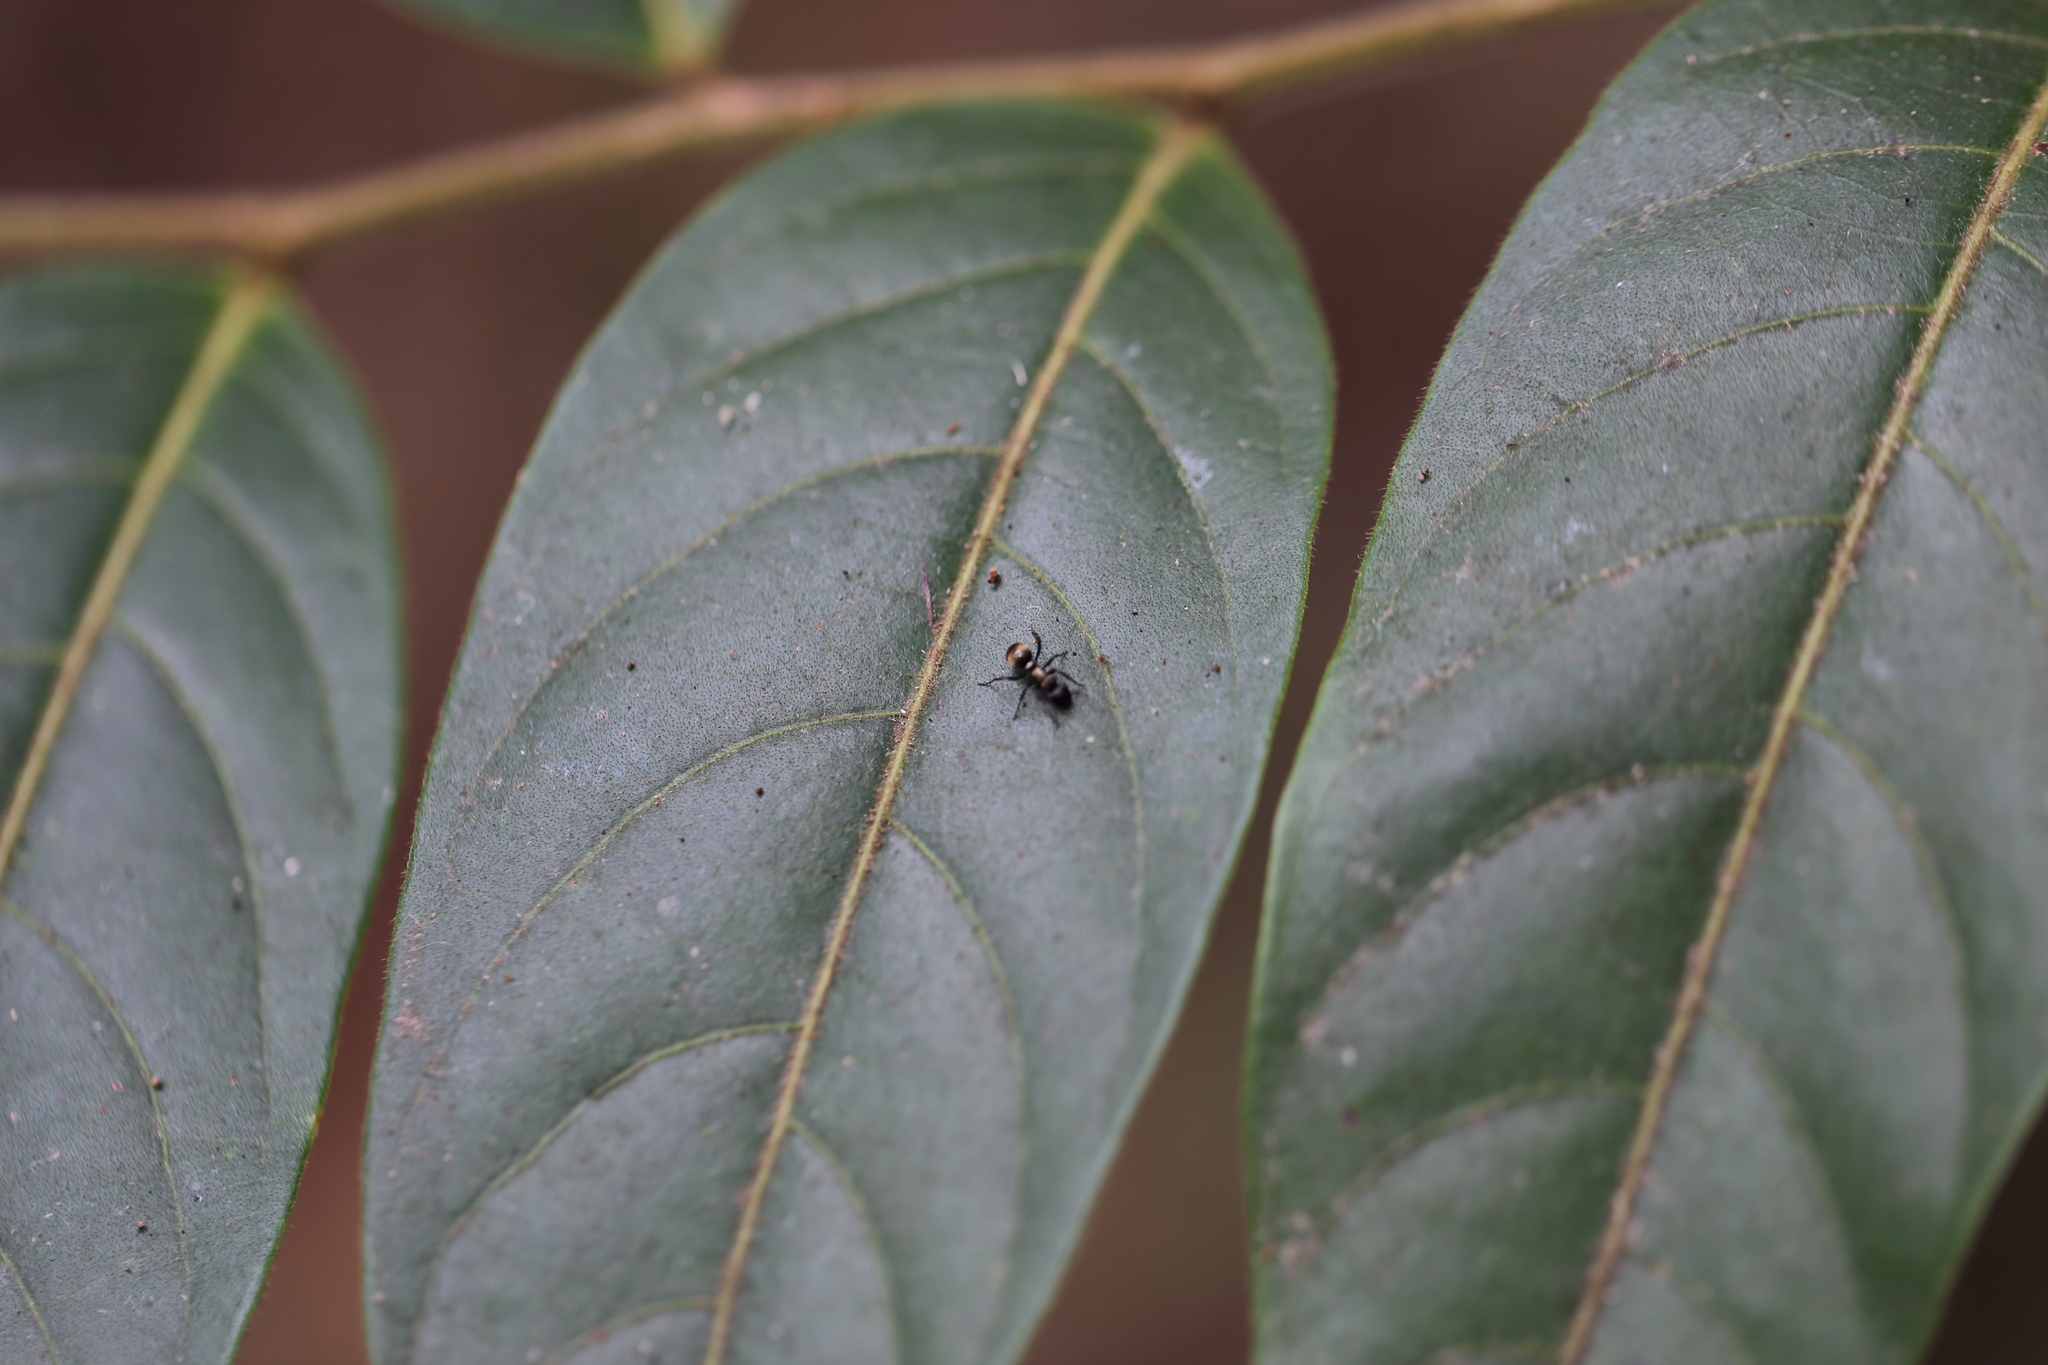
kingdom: Animalia
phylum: Arthropoda
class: Insecta
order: Hymenoptera
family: Formicidae
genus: Polyrhachis
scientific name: Polyrhachis rufifemur
